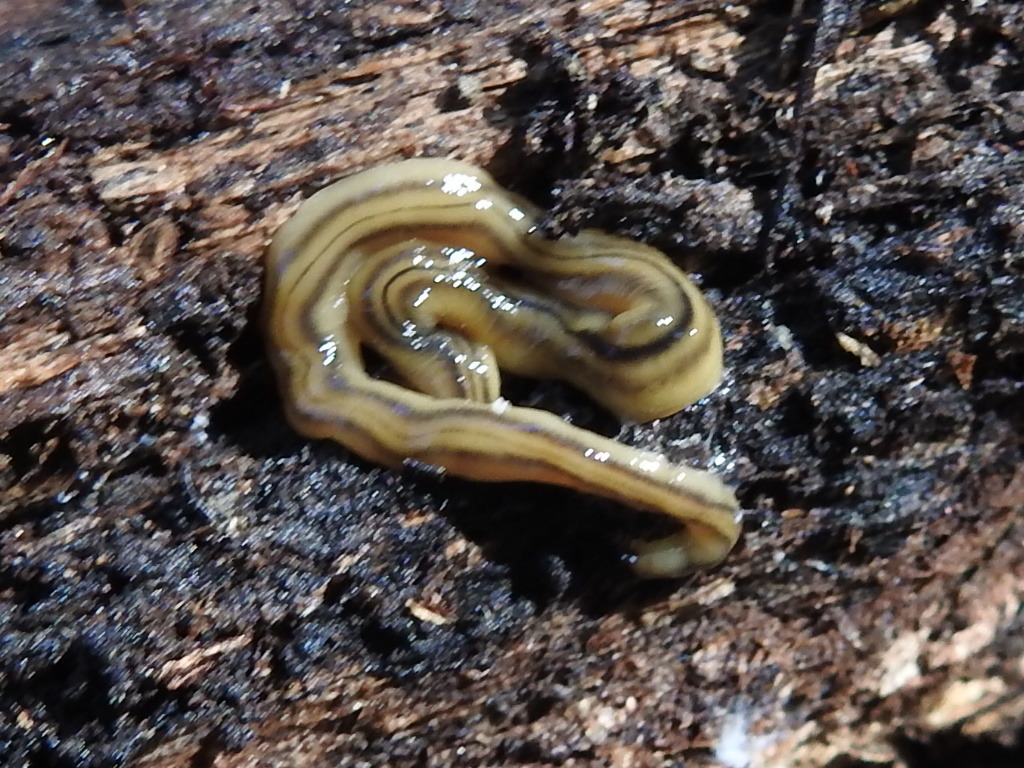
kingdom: Animalia
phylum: Platyhelminthes
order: Tricladida
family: Geoplanidae
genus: Bipalium
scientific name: Bipalium kewense
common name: Hammerhead flatworm
